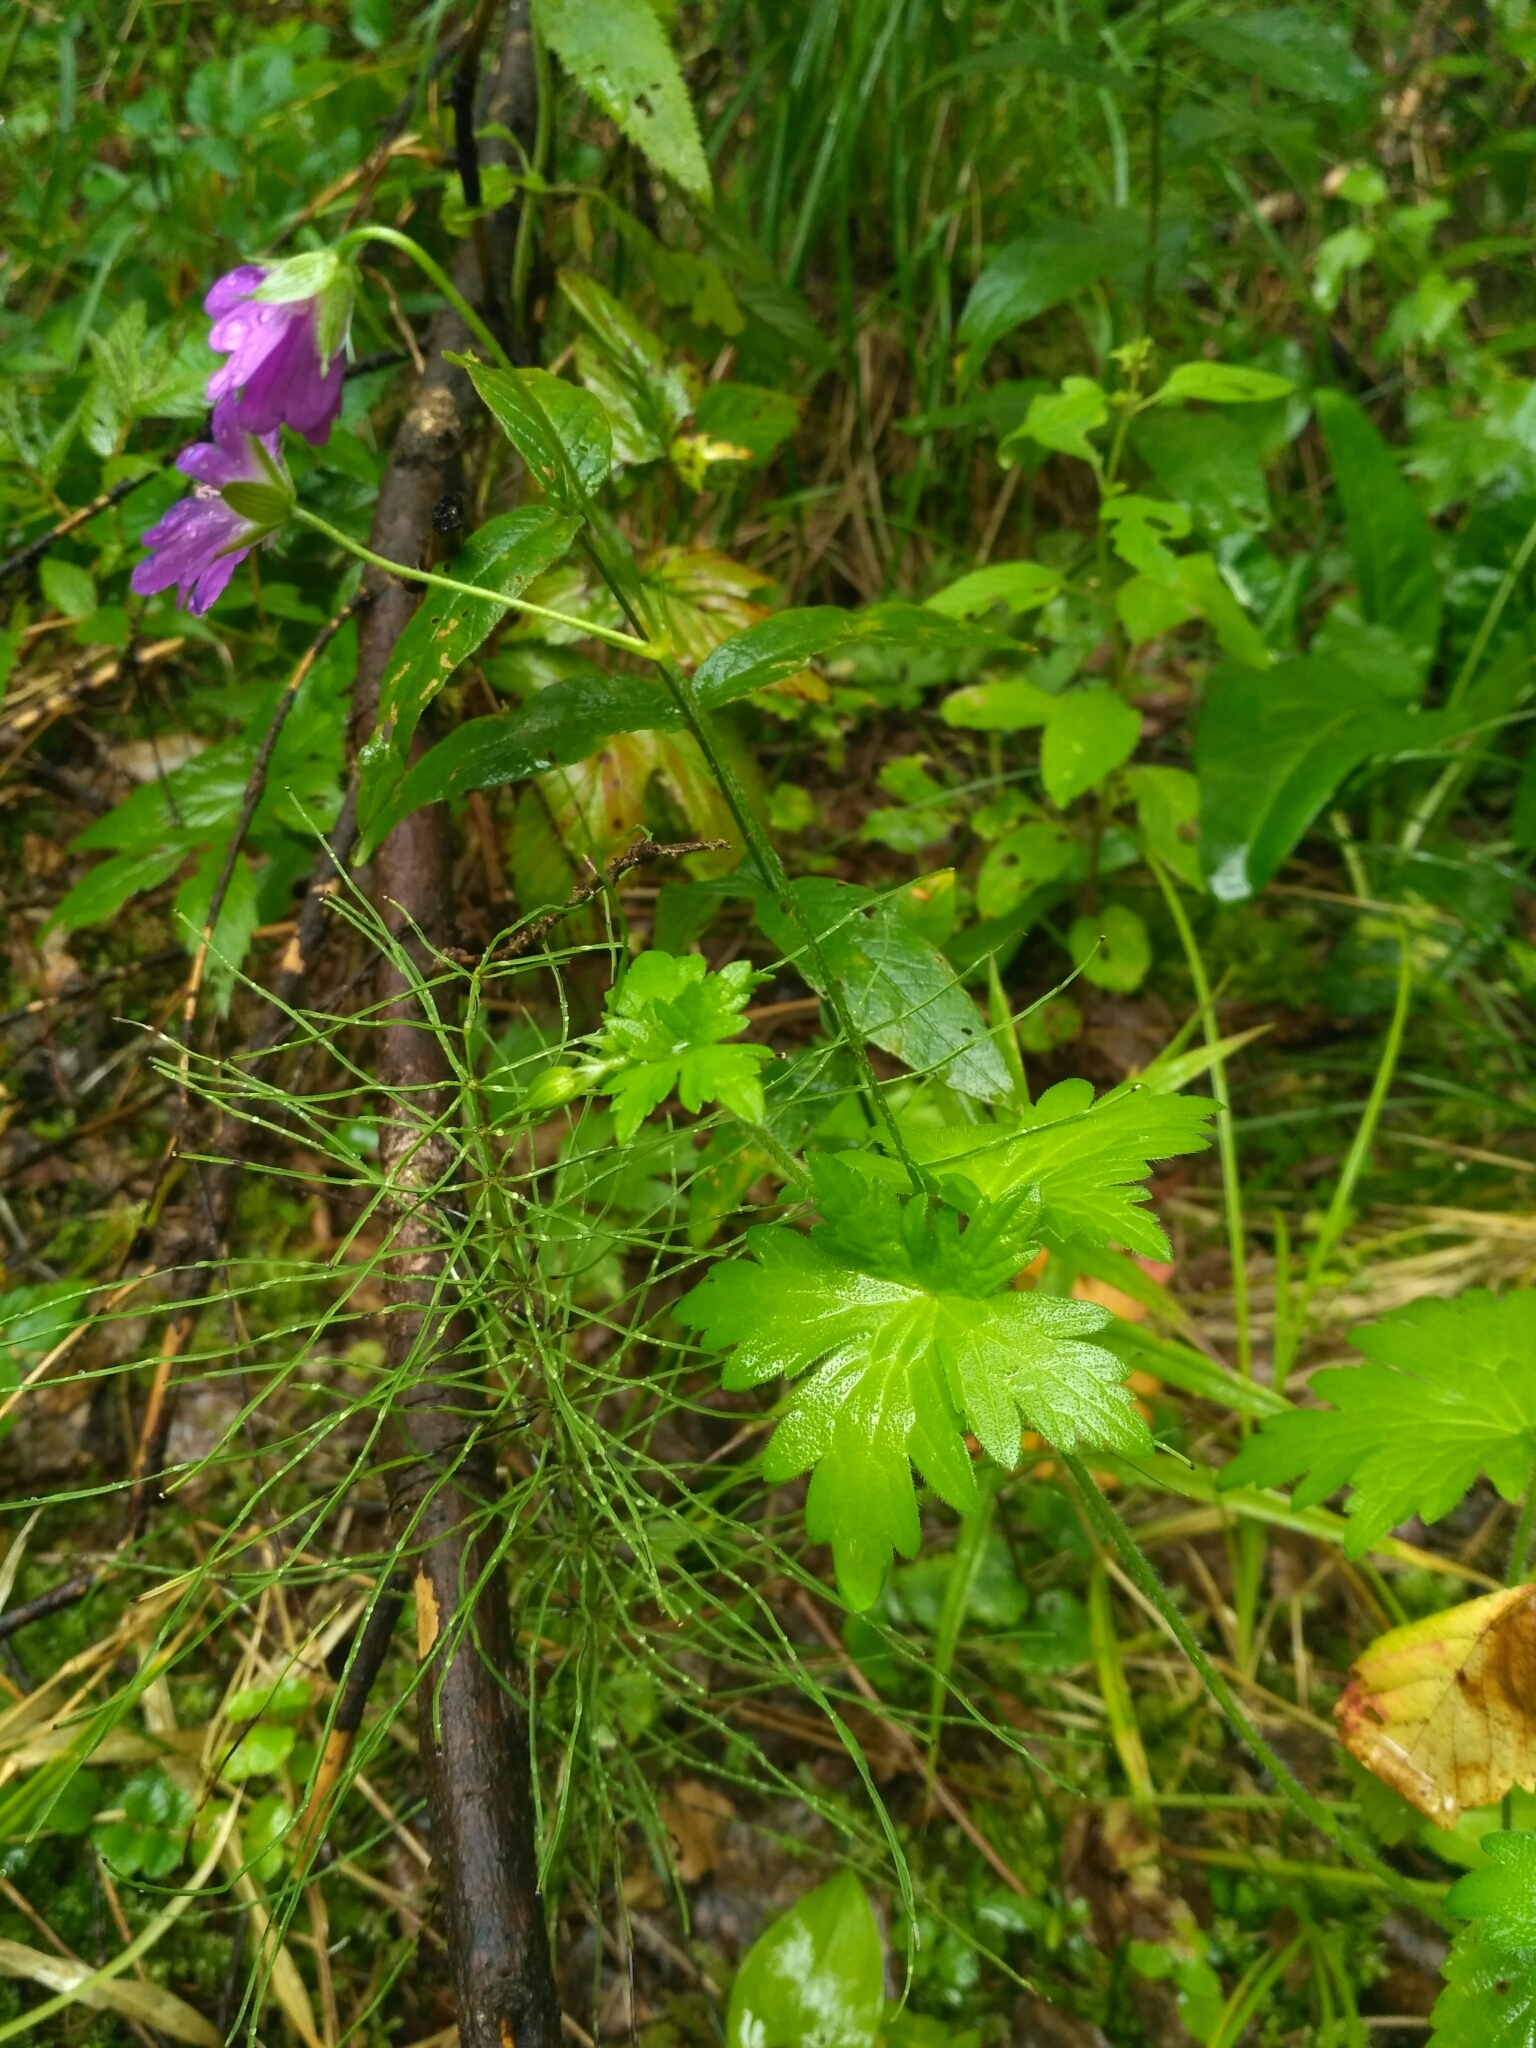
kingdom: Plantae
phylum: Tracheophyta
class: Magnoliopsida
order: Geraniales
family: Geraniaceae
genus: Geranium
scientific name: Geranium palustre
